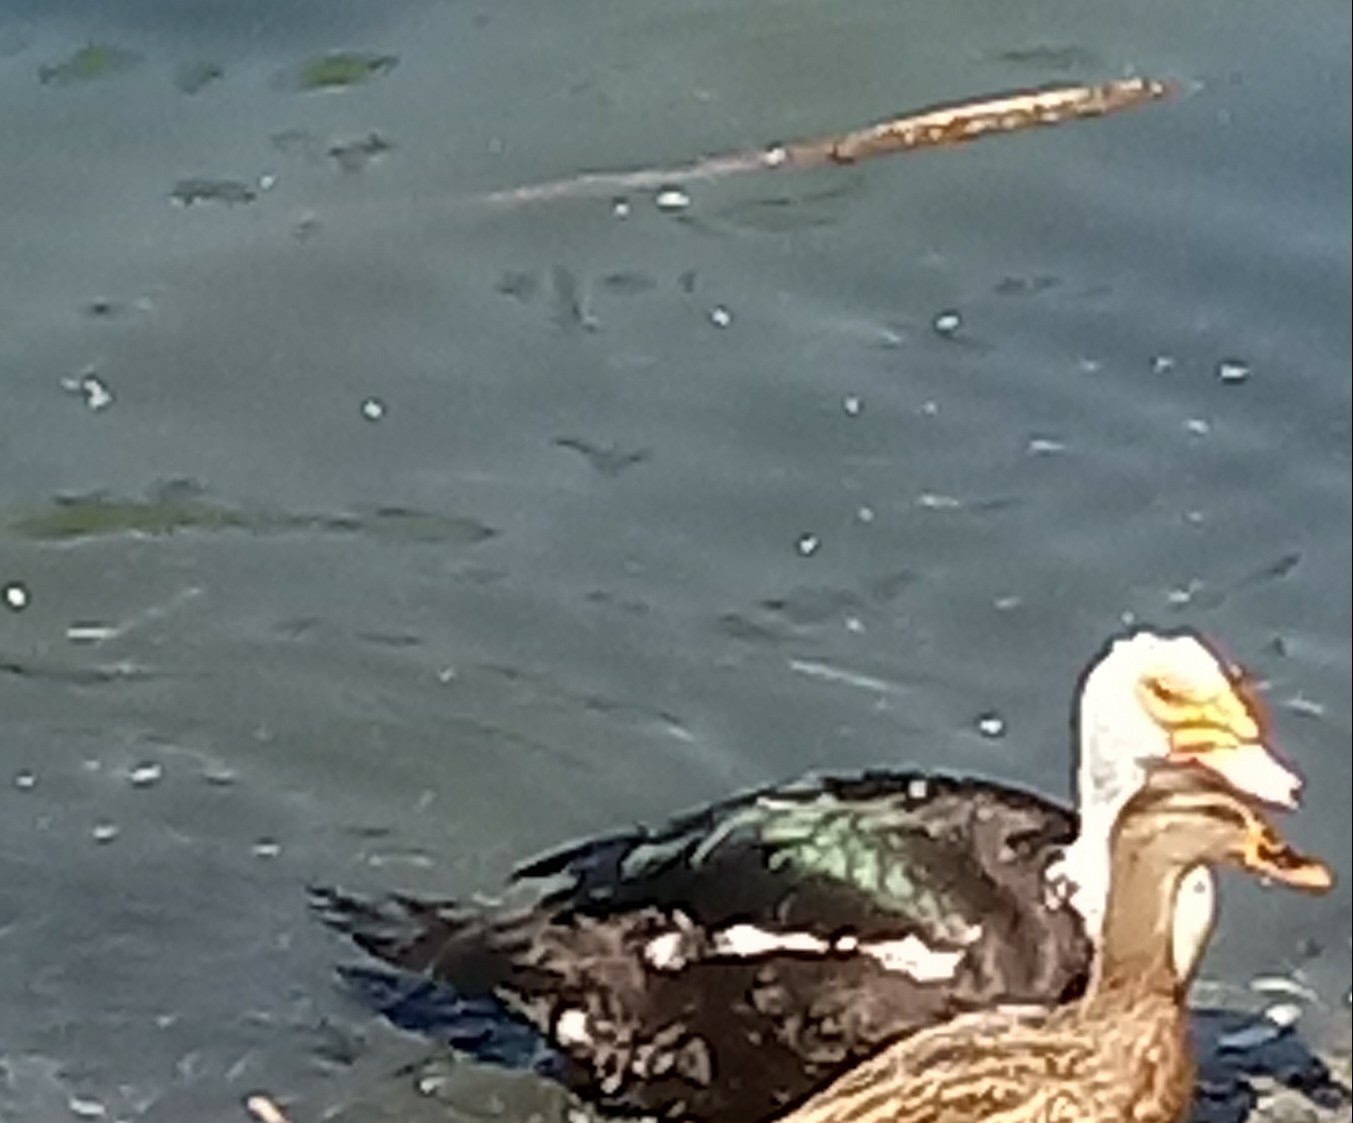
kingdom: Animalia
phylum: Chordata
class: Aves
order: Anseriformes
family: Anatidae
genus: Cairina
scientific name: Cairina moschata
